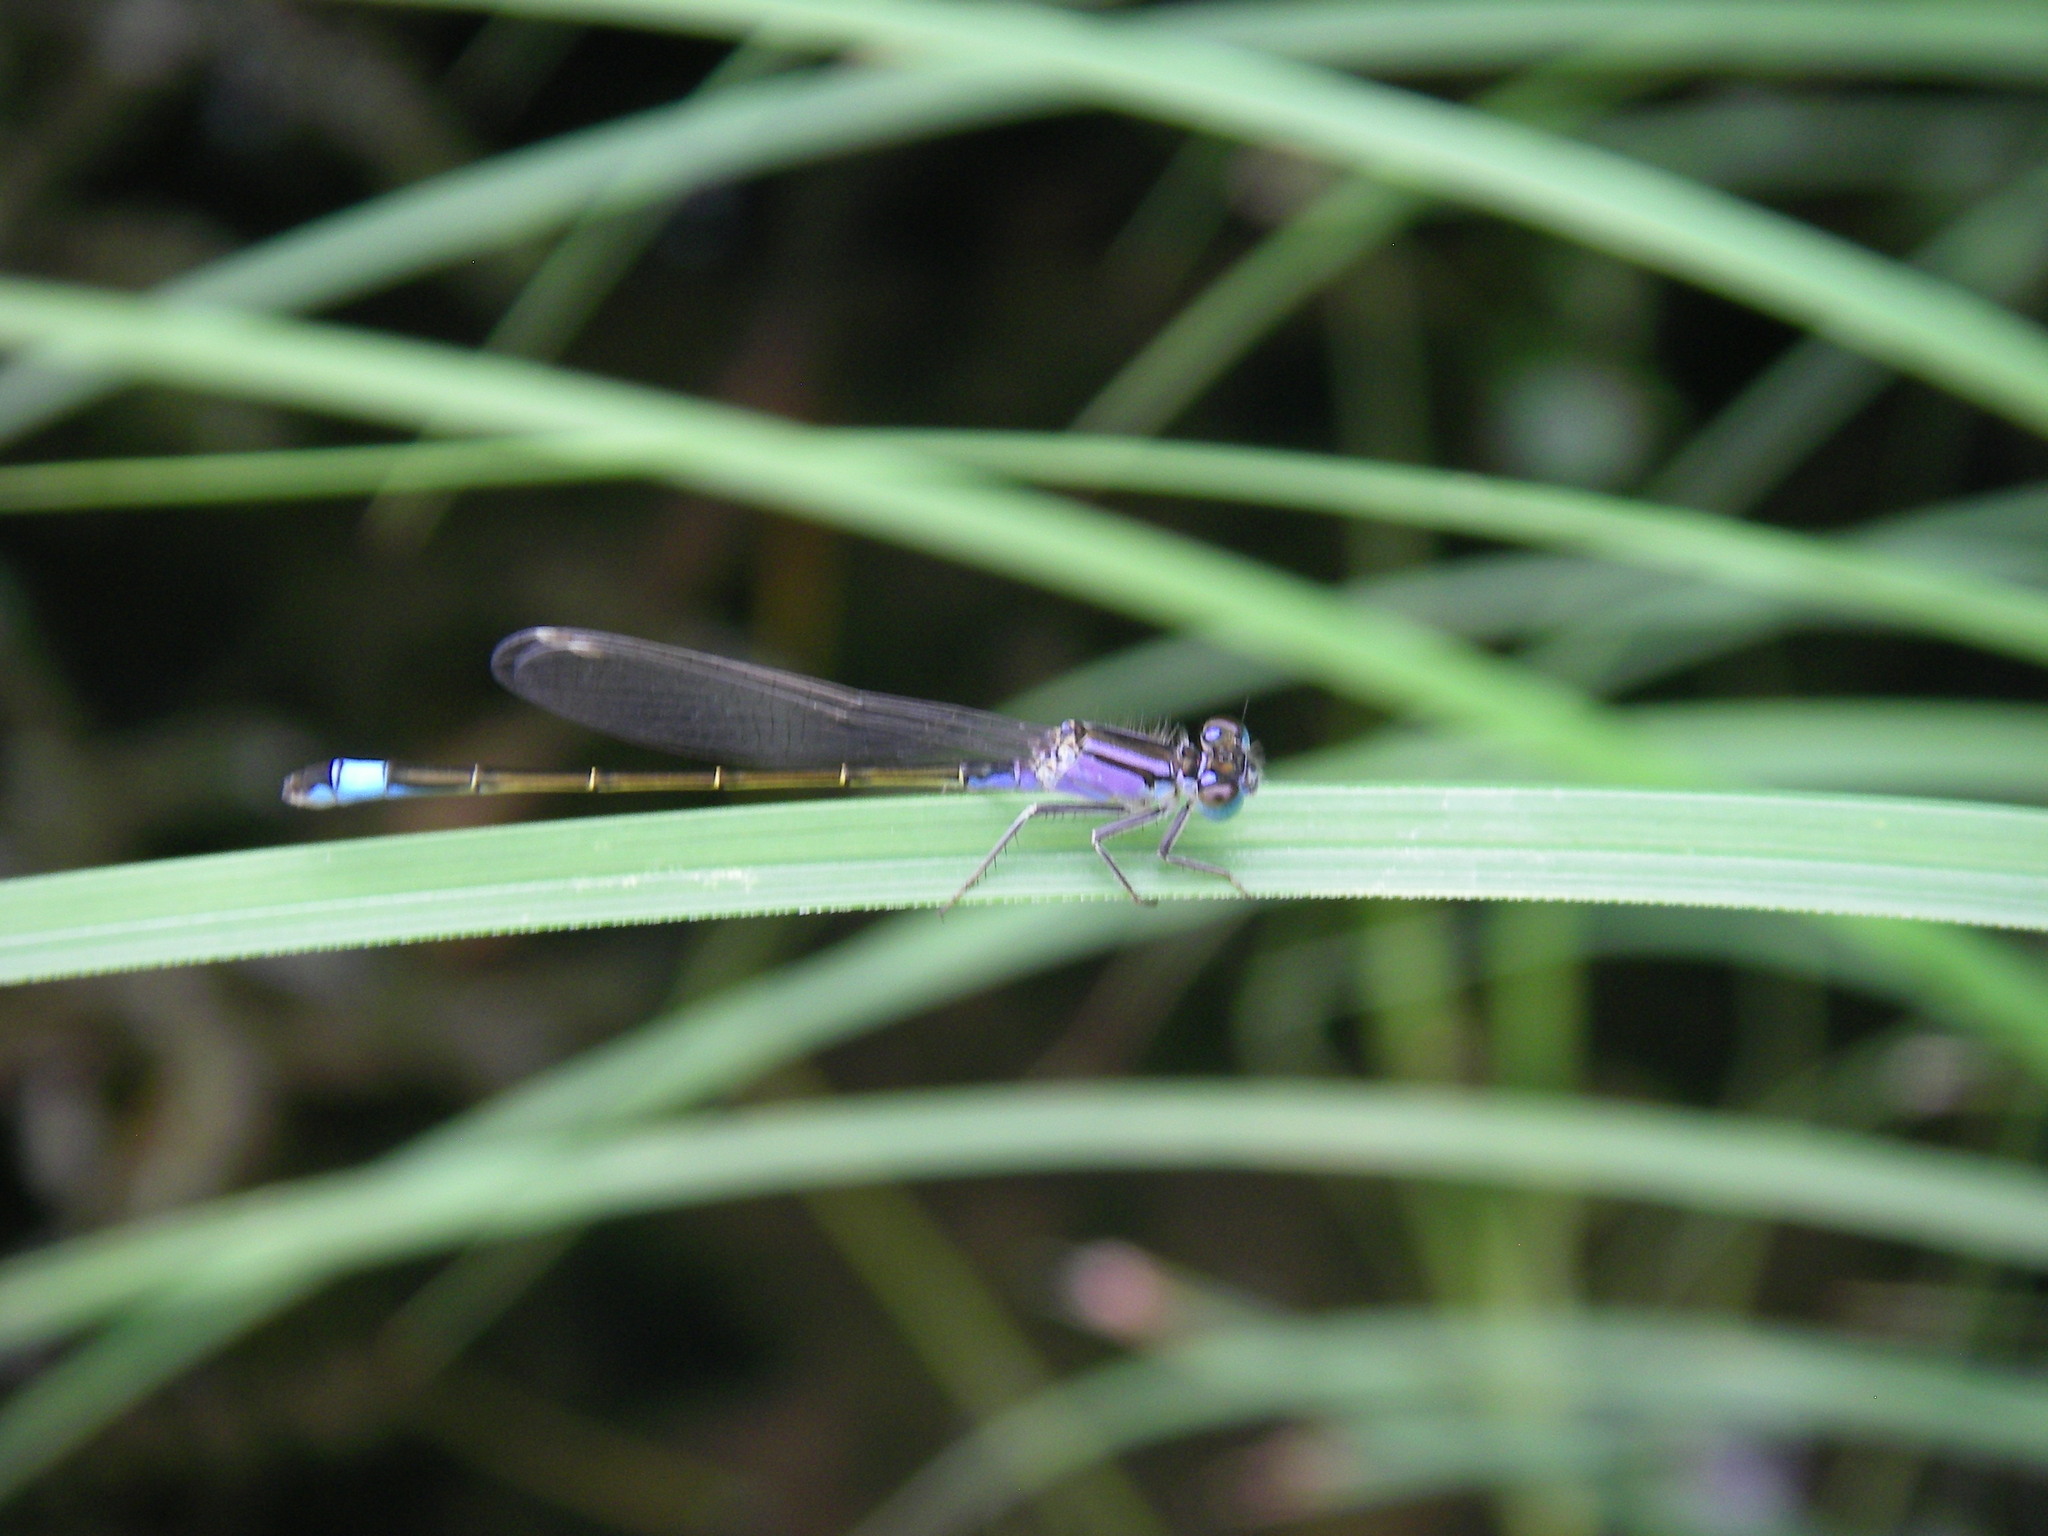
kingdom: Animalia
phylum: Arthropoda
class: Insecta
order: Odonata
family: Coenagrionidae
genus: Ischnura
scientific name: Ischnura elegans
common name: Blue-tailed damselfly
